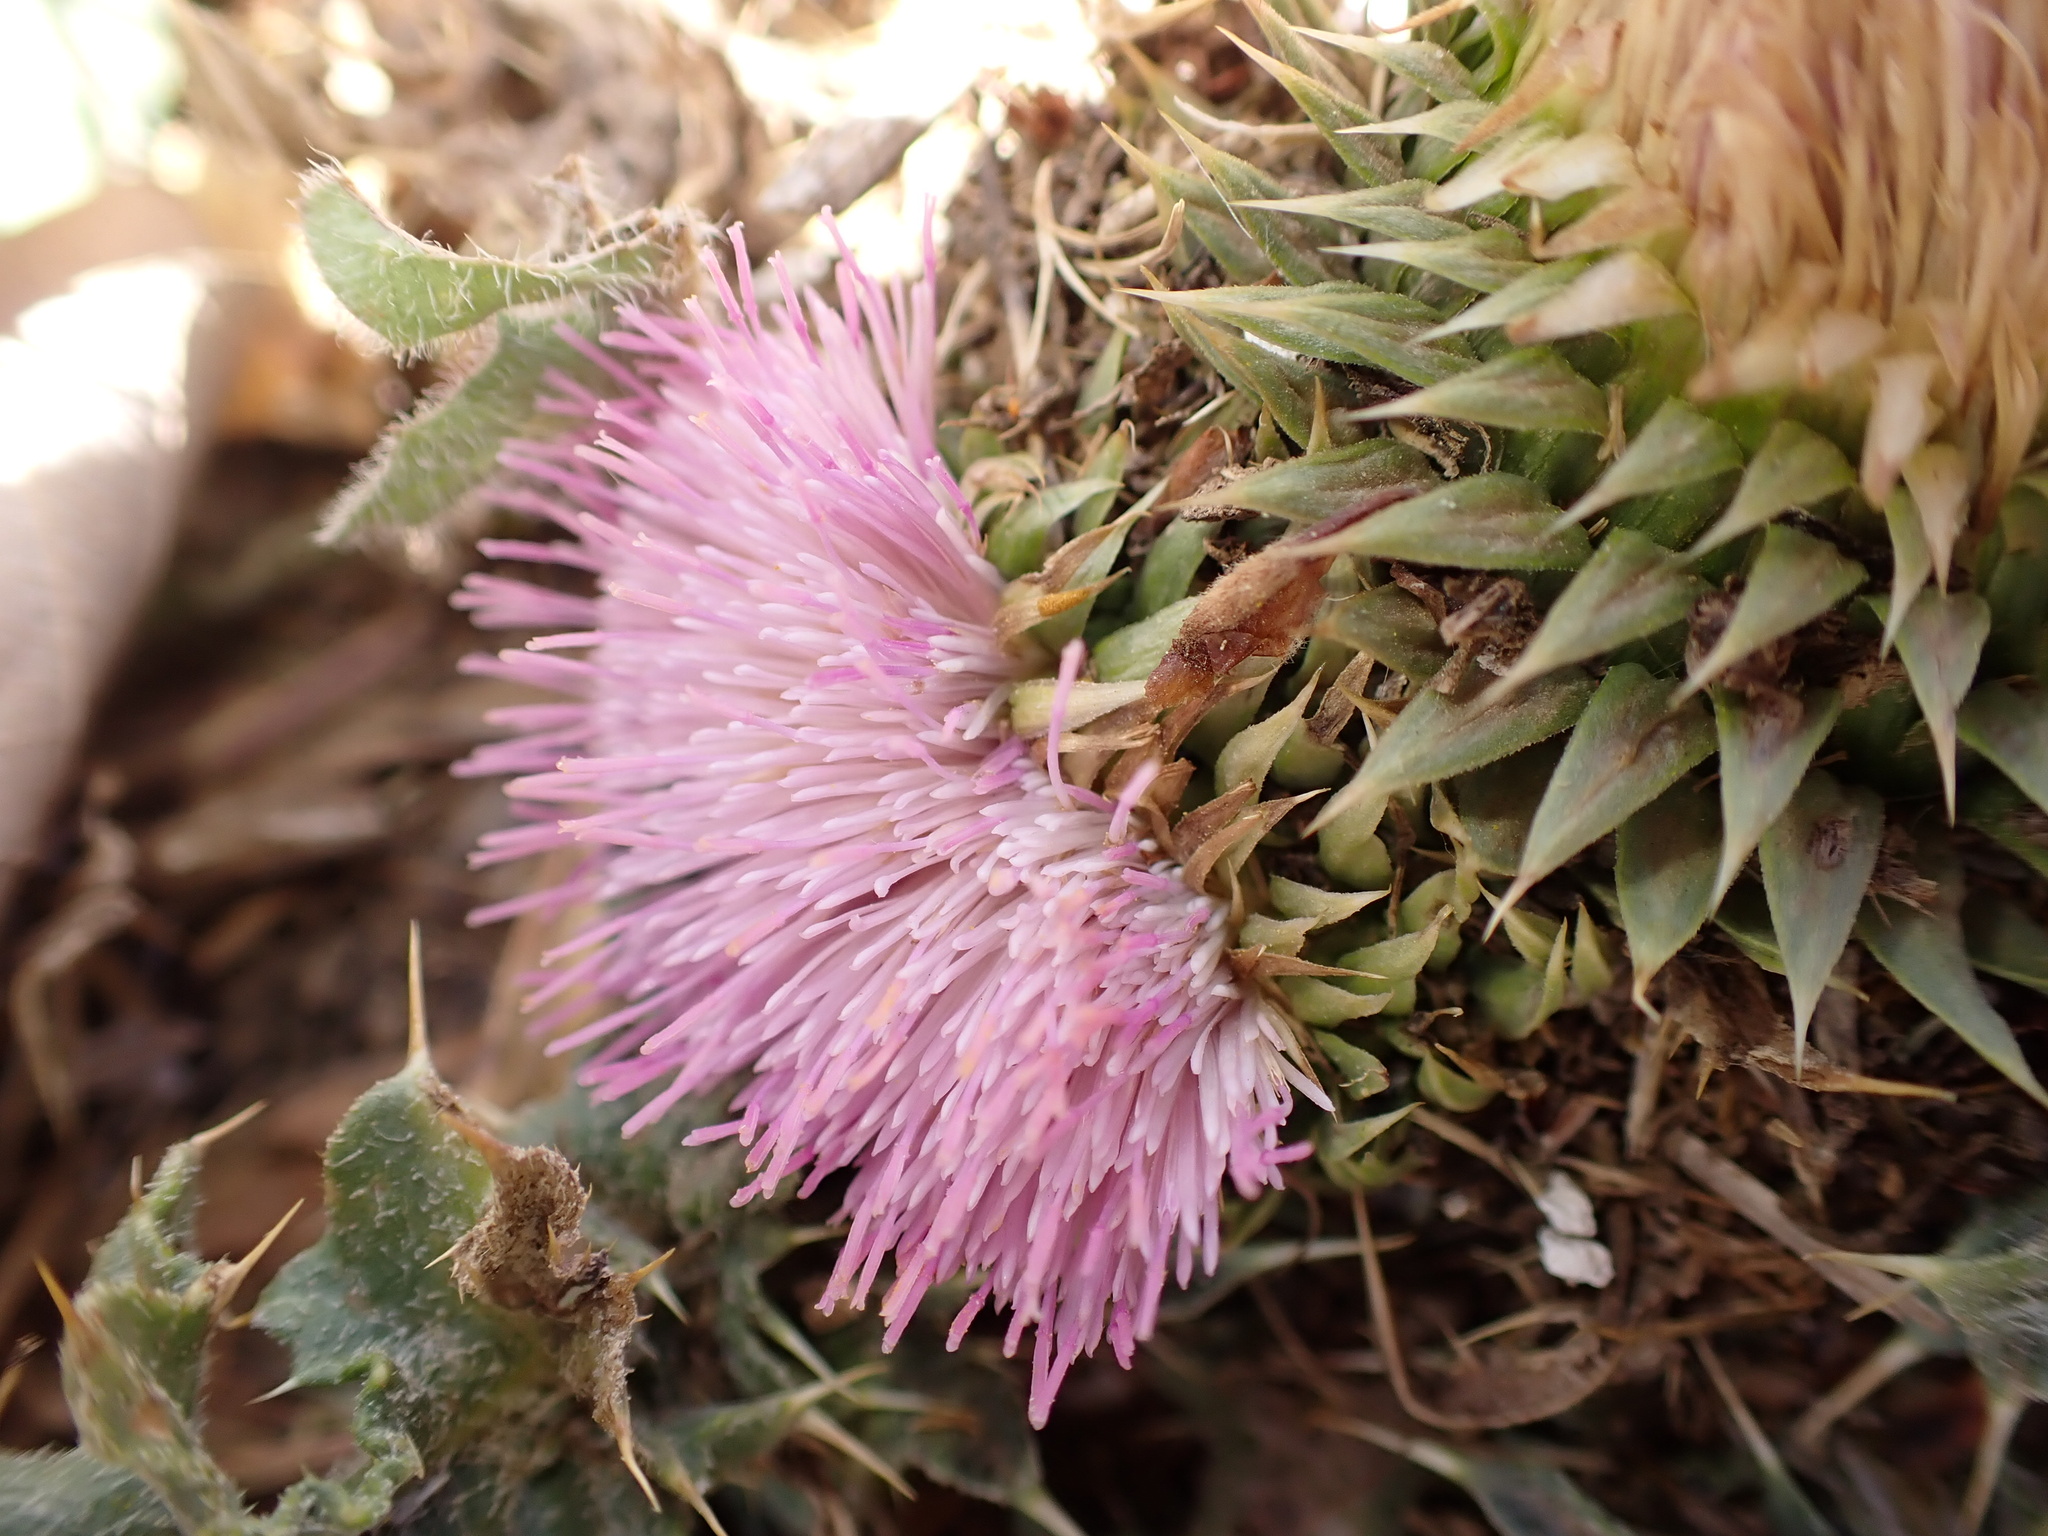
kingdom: Plantae
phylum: Tracheophyta
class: Magnoliopsida
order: Asterales
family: Asteraceae
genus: Carduus
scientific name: Carduus ballii
